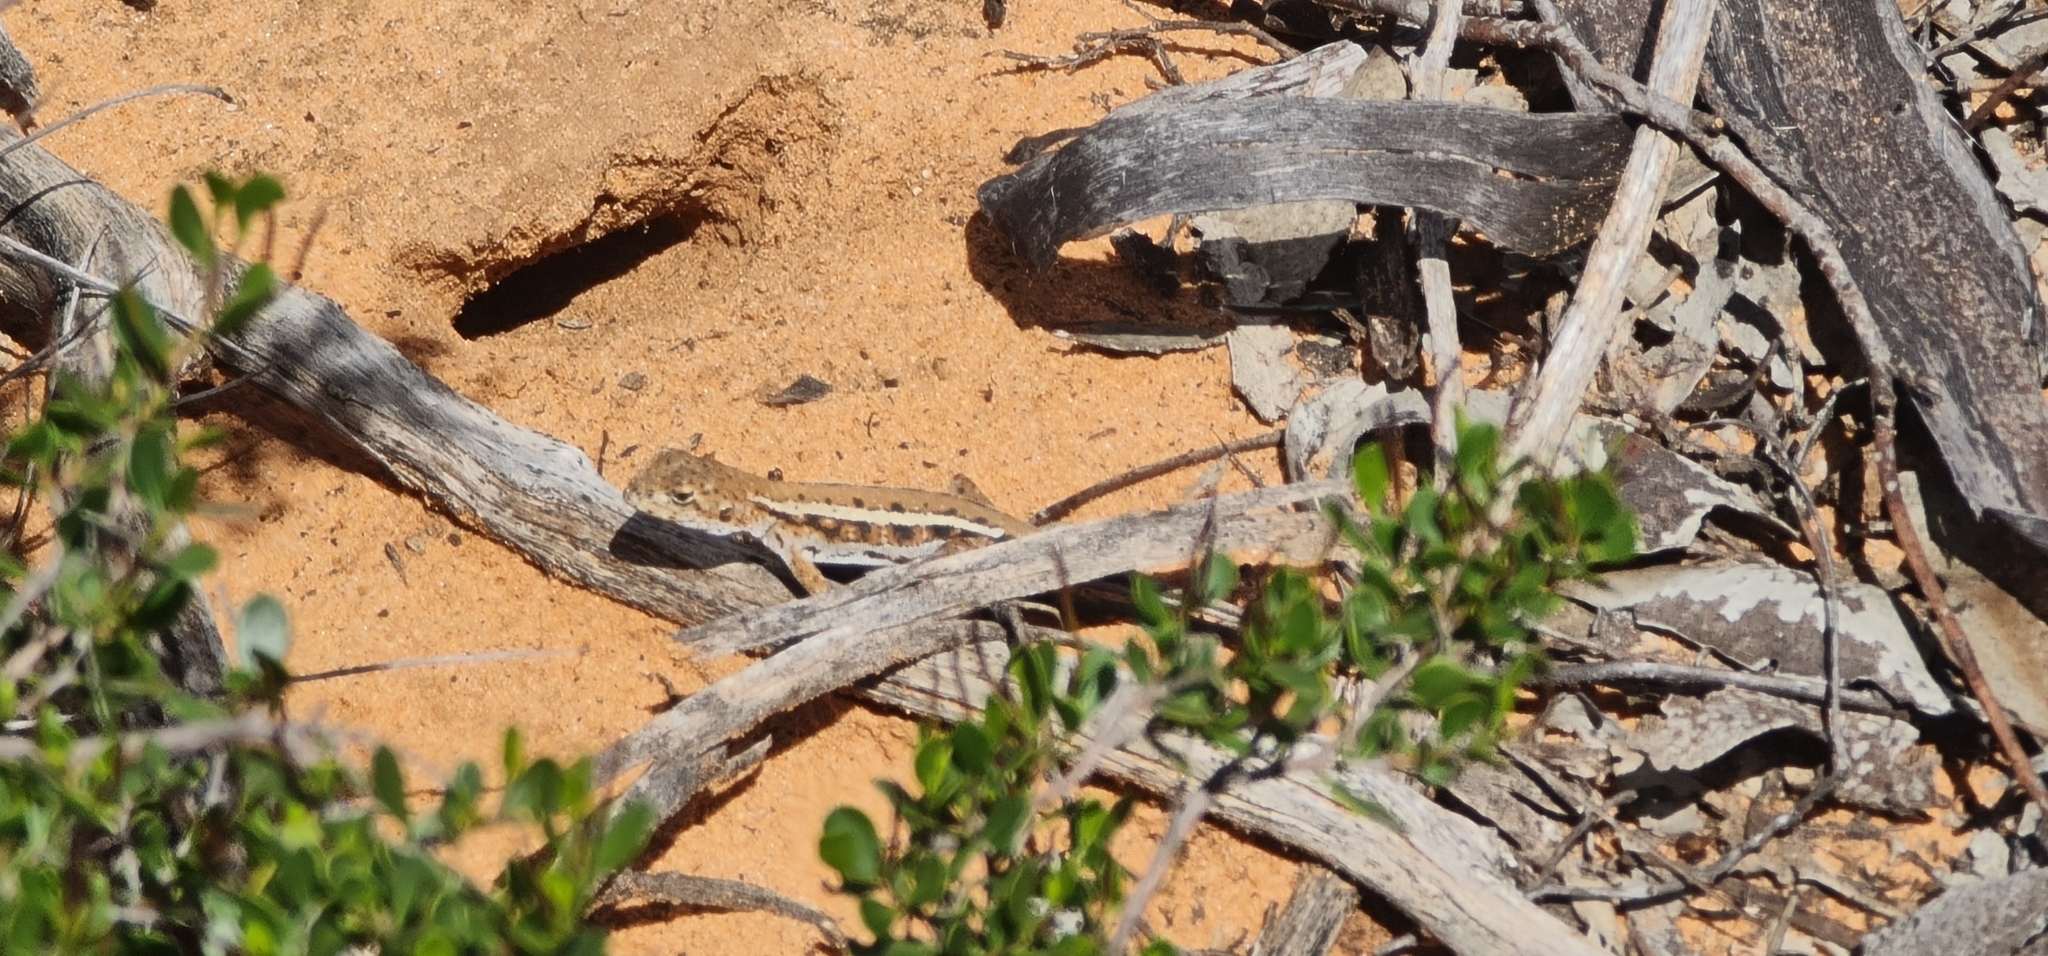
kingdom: Animalia
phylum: Chordata
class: Squamata
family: Agamidae
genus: Ctenophorus
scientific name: Ctenophorus spinodomus
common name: Eastern mallee dragon
